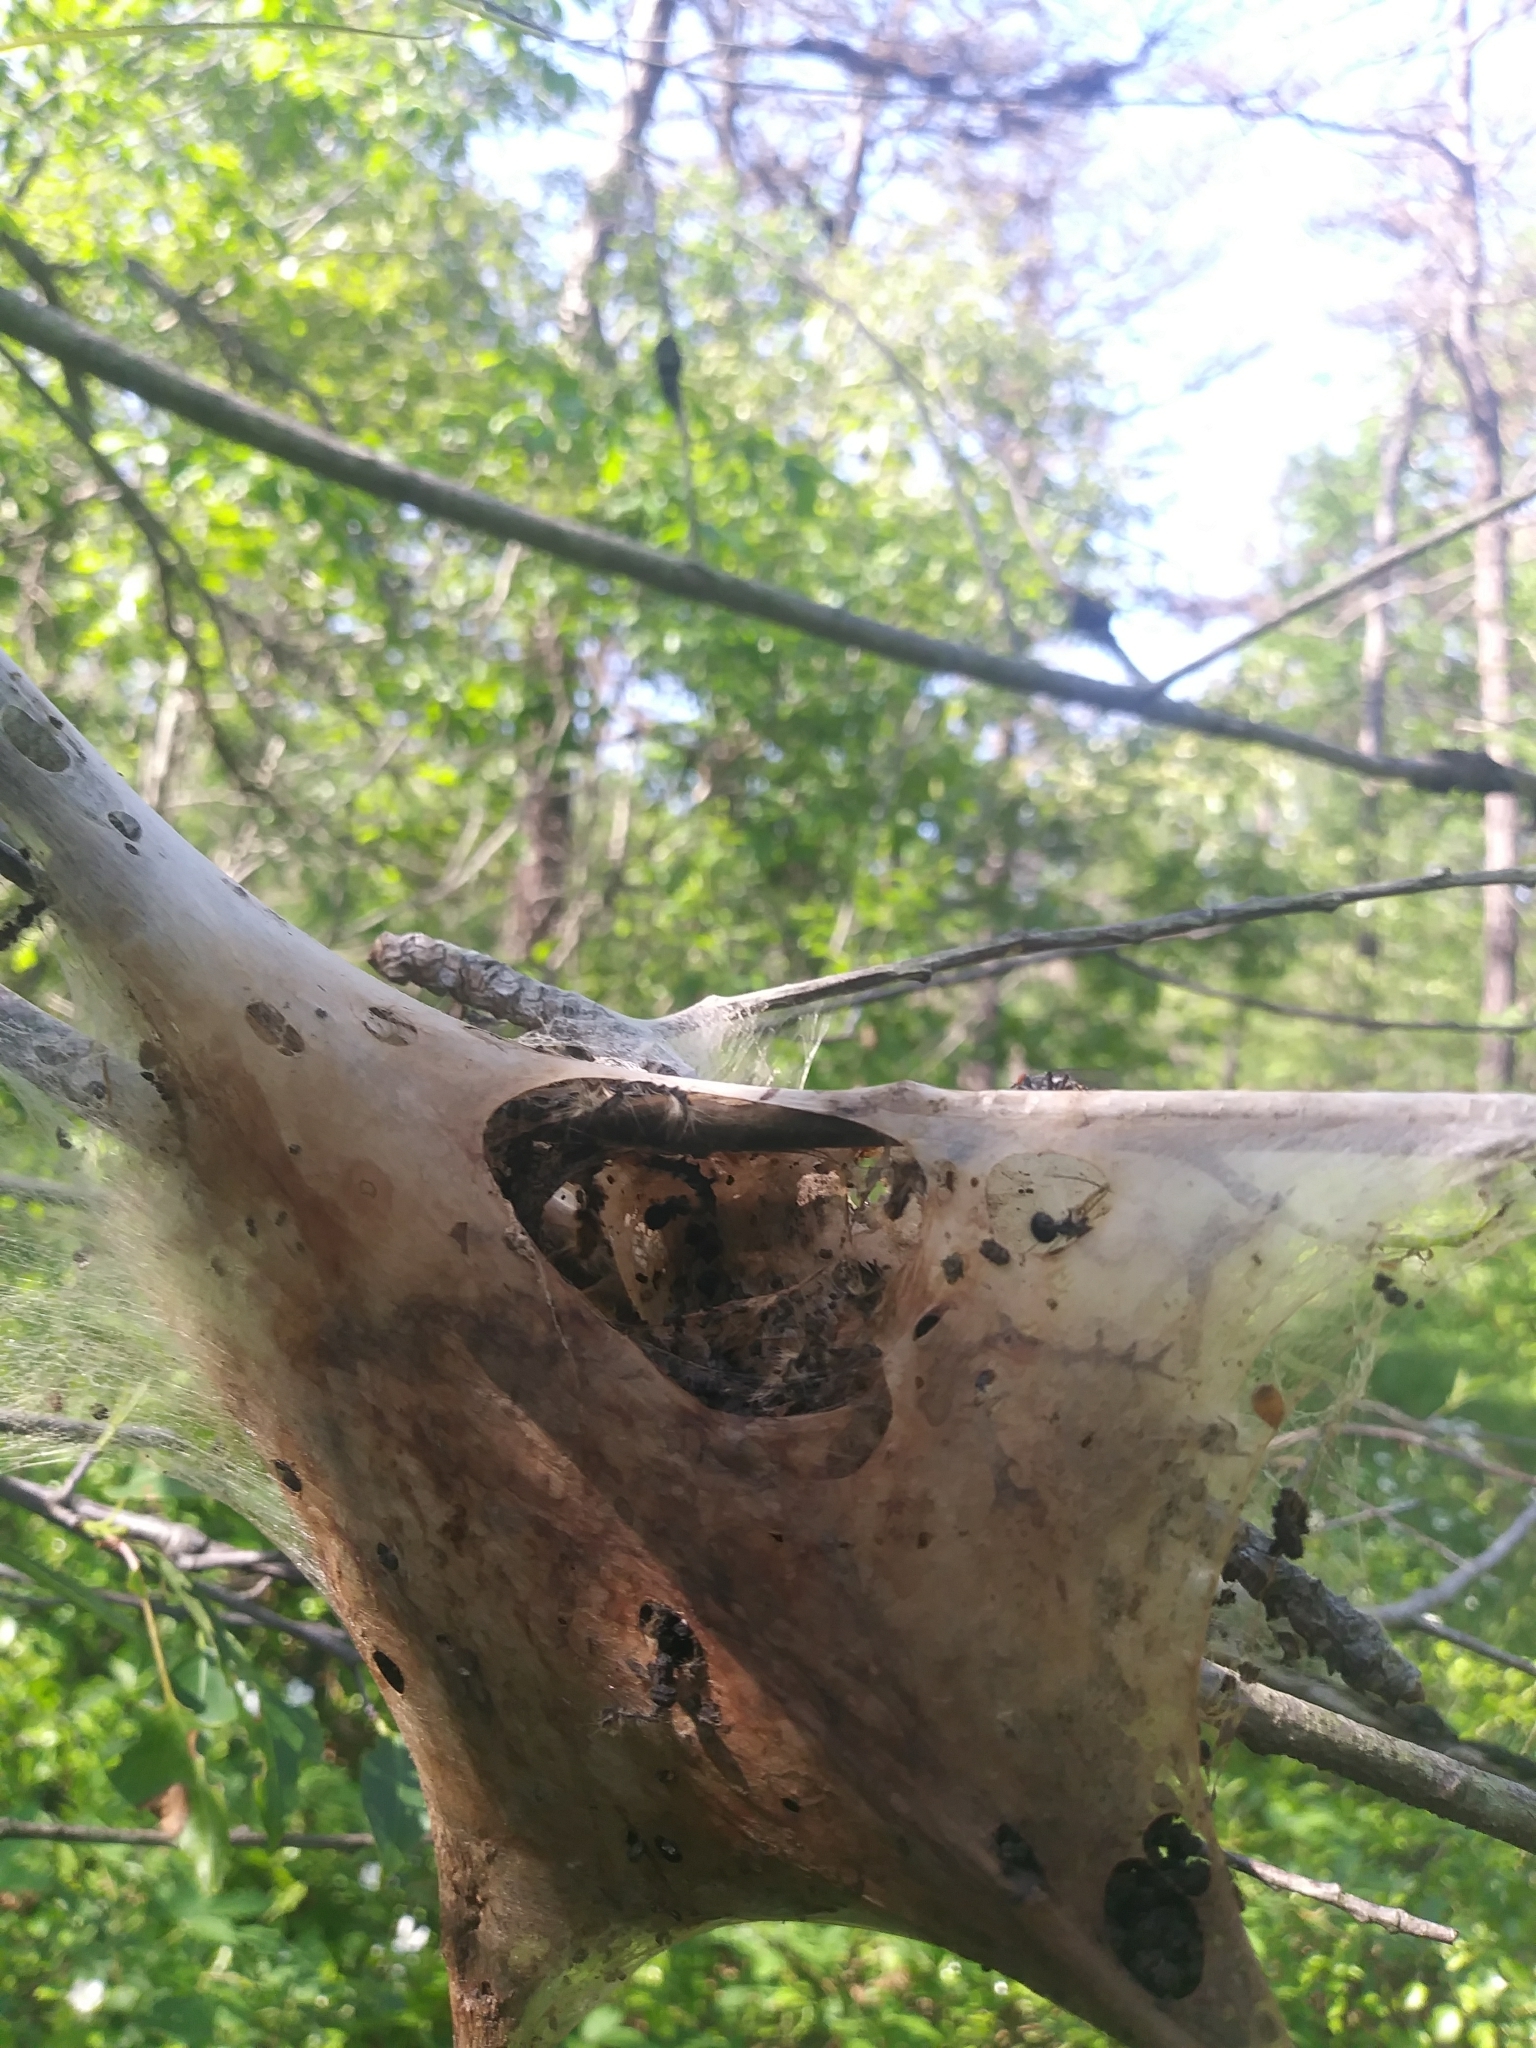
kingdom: Animalia
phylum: Arthropoda
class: Insecta
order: Lepidoptera
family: Lasiocampidae
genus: Malacosoma
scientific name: Malacosoma americana
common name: Eastern tent caterpillar moth
